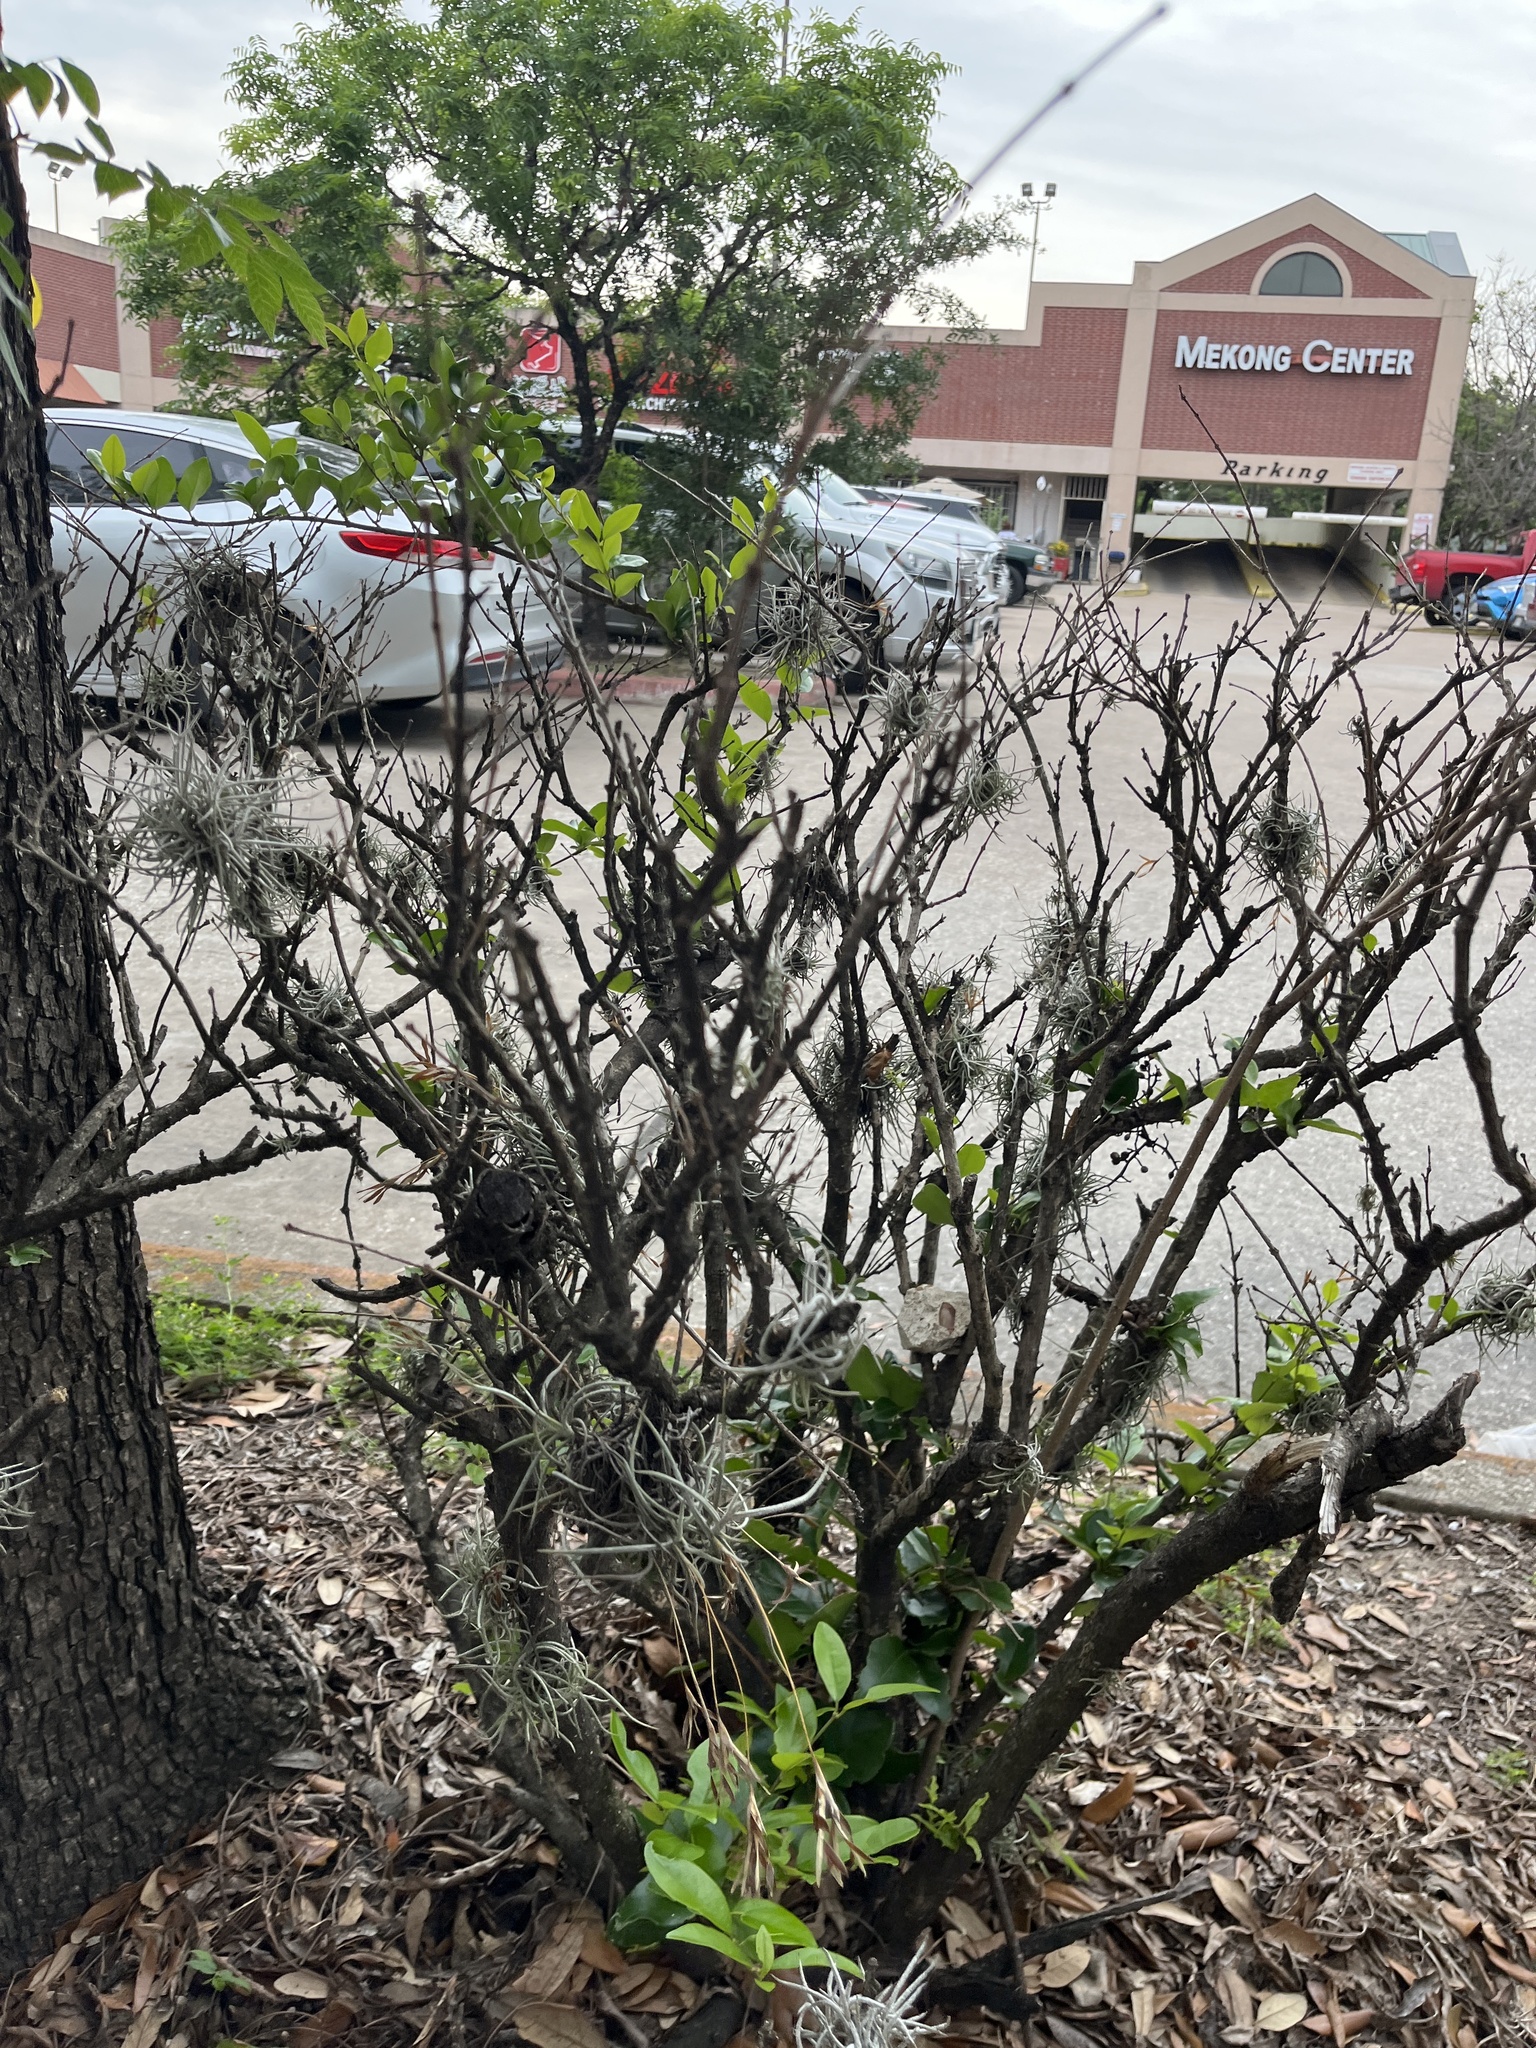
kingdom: Plantae
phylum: Tracheophyta
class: Liliopsida
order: Poales
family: Bromeliaceae
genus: Tillandsia
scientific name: Tillandsia recurvata
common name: Small ballmoss
